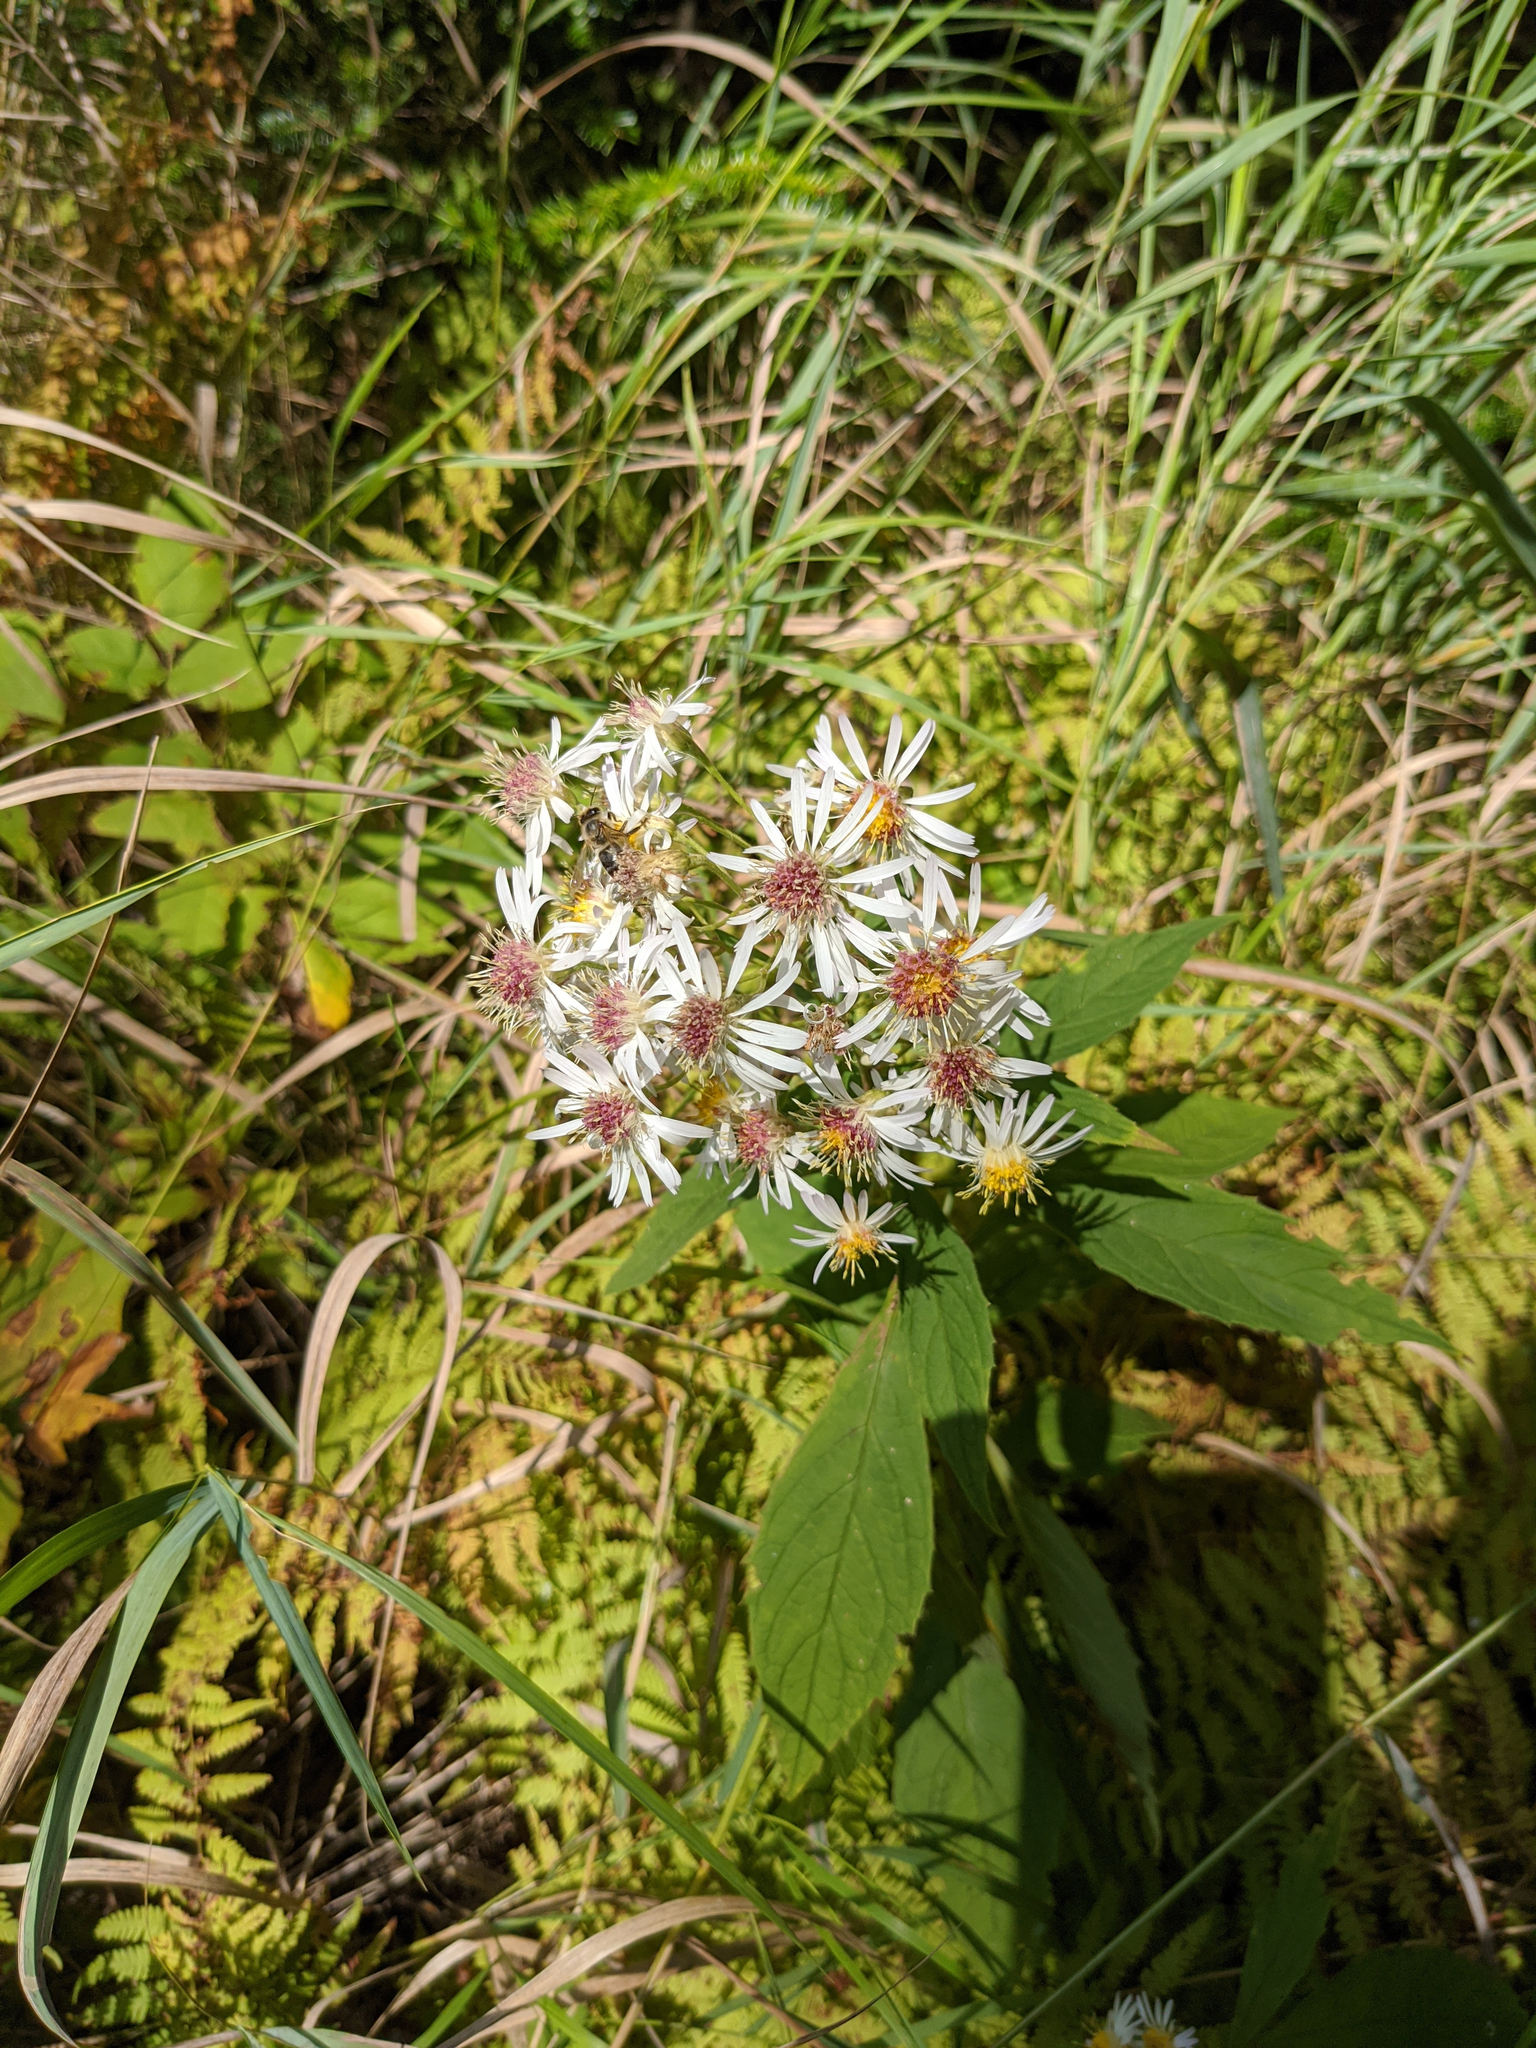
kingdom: Plantae
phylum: Tracheophyta
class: Magnoliopsida
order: Asterales
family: Asteraceae
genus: Oclemena
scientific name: Oclemena acuminata
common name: Mountain aster
